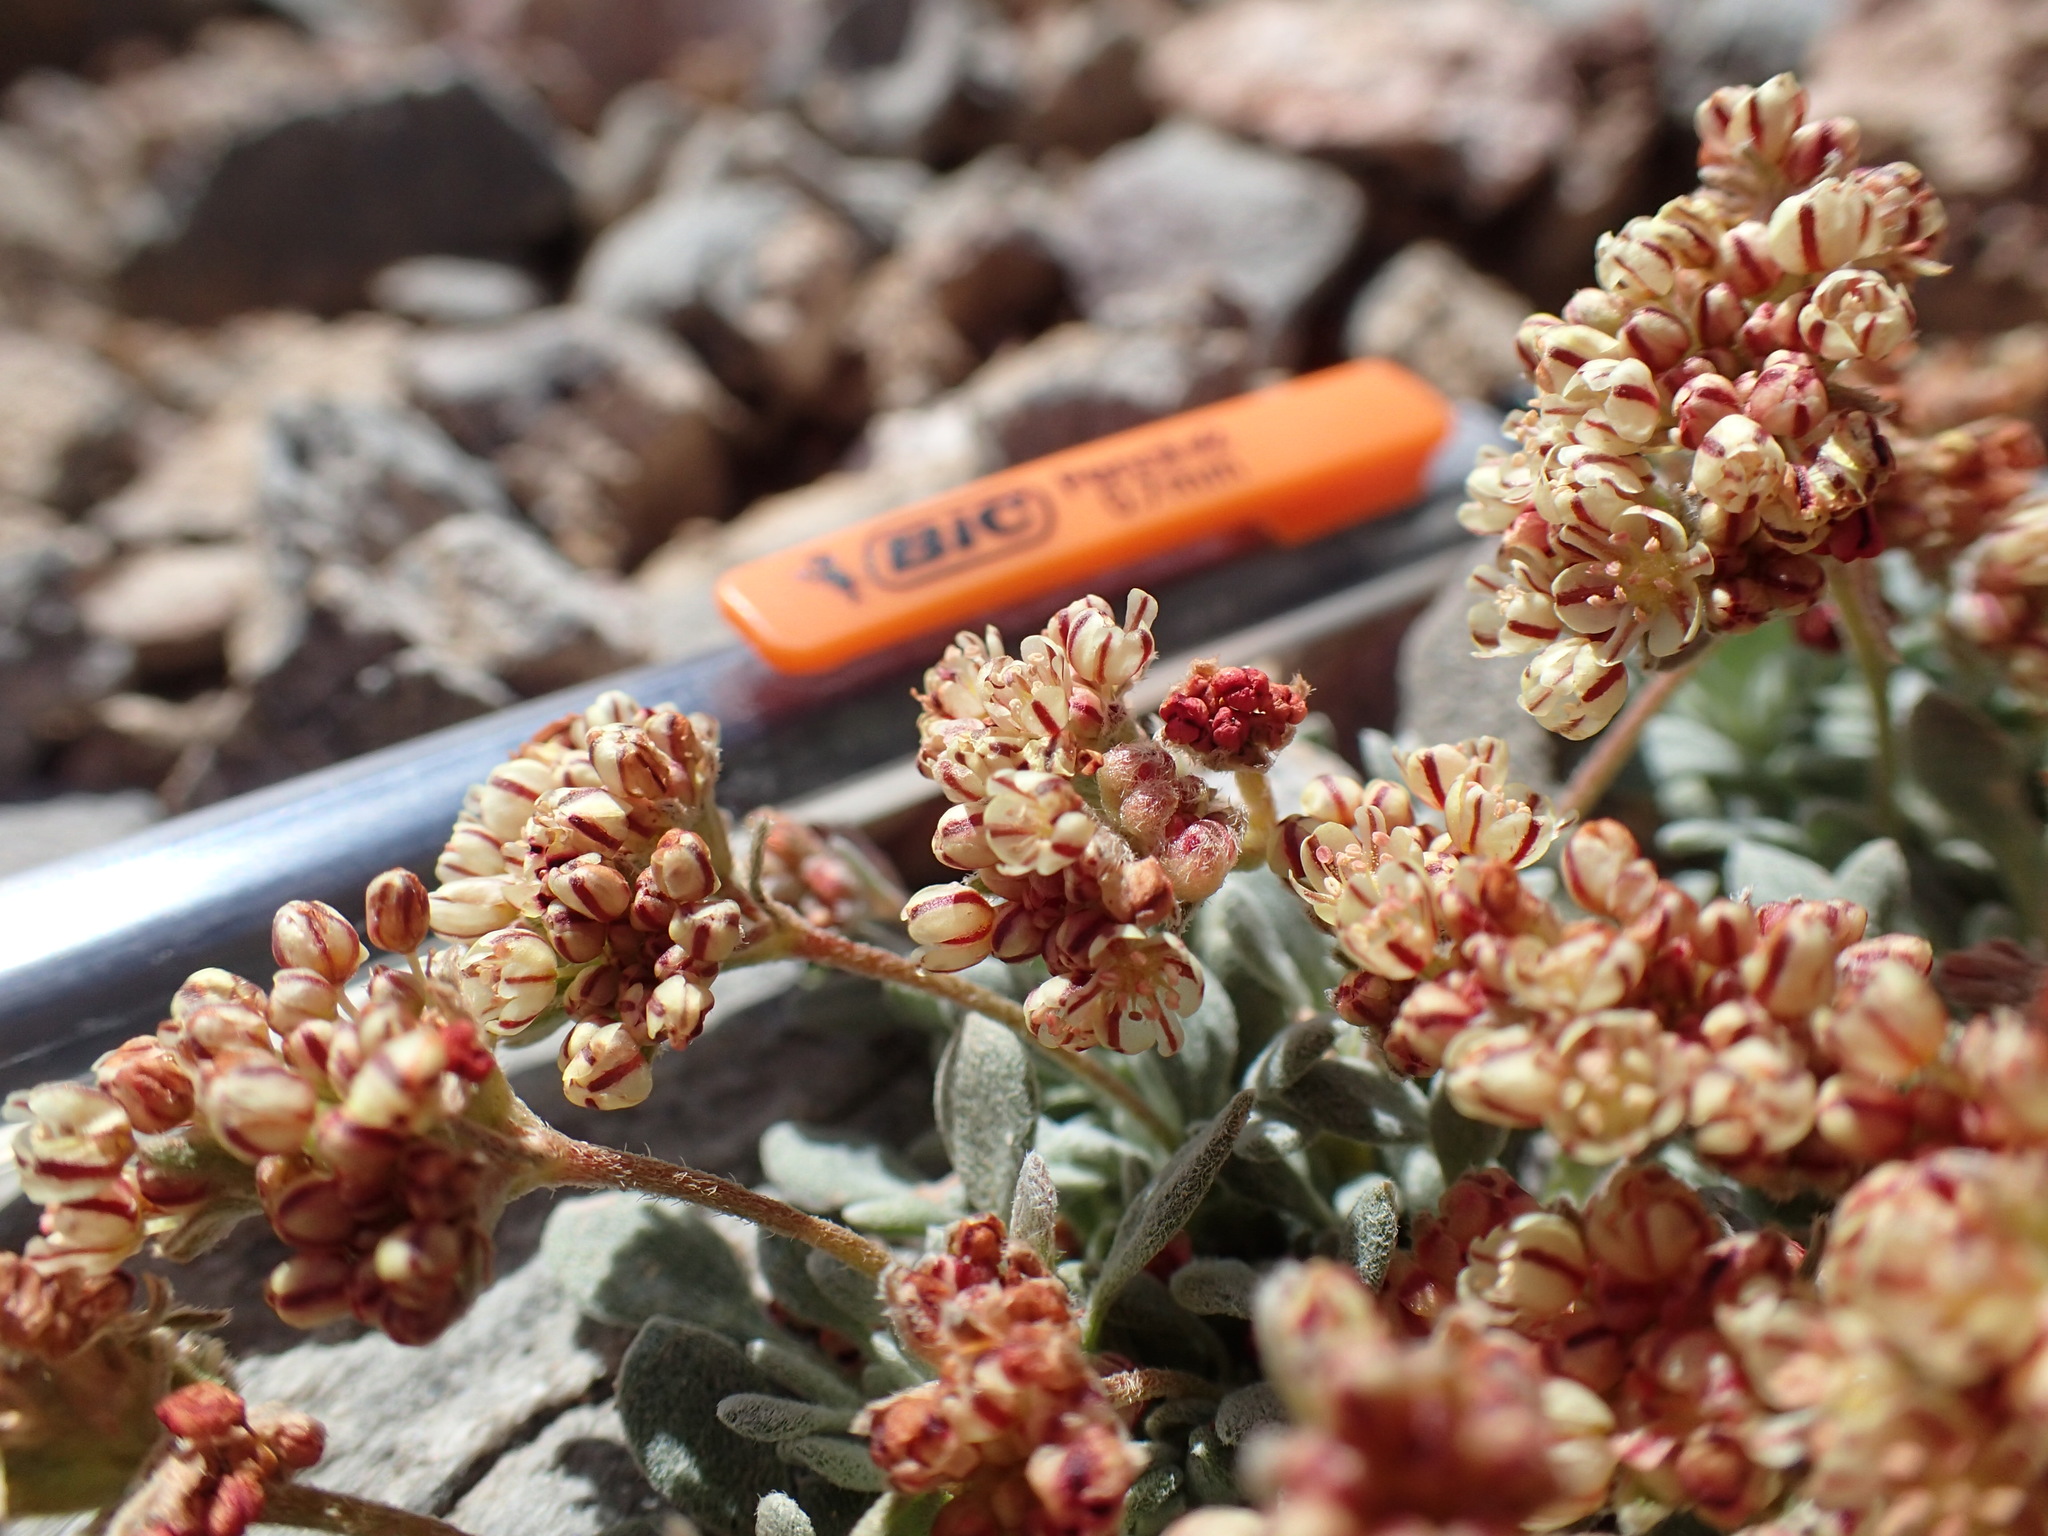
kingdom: Plantae
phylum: Tracheophyta
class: Magnoliopsida
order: Caryophyllales
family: Polygonaceae
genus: Eriogonum
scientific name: Eriogonum gilmanii
